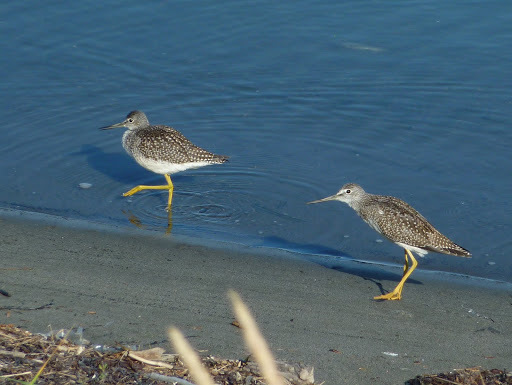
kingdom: Animalia
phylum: Chordata
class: Aves
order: Charadriiformes
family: Scolopacidae
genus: Tringa
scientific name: Tringa melanoleuca
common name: Greater yellowlegs
